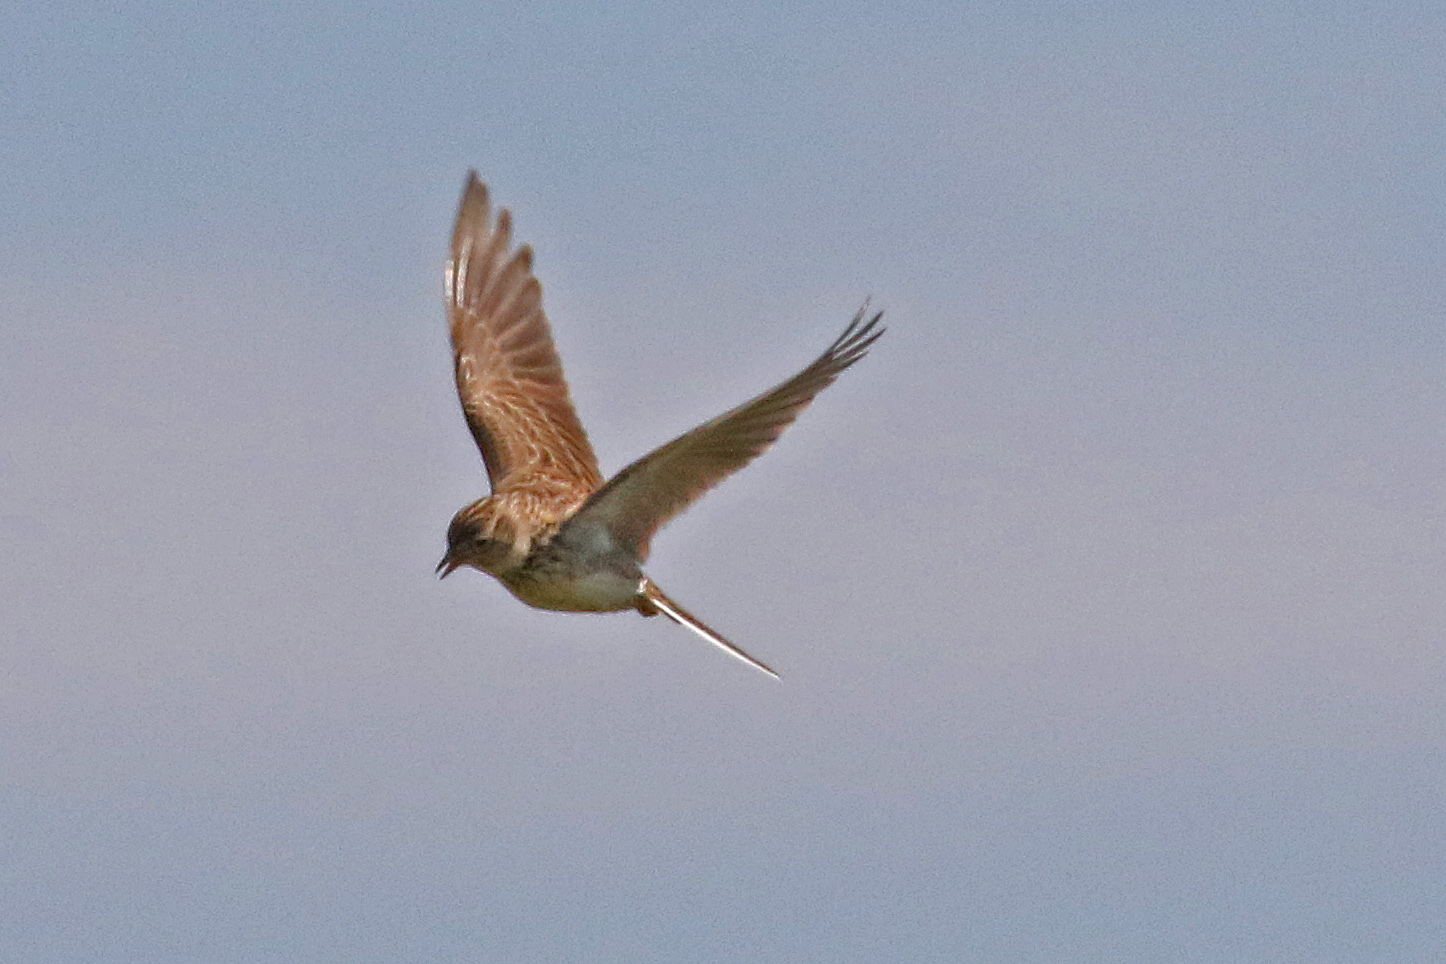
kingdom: Animalia
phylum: Chordata
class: Aves
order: Passeriformes
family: Alaudidae
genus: Alauda
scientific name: Alauda arvensis
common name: Eurasian skylark
